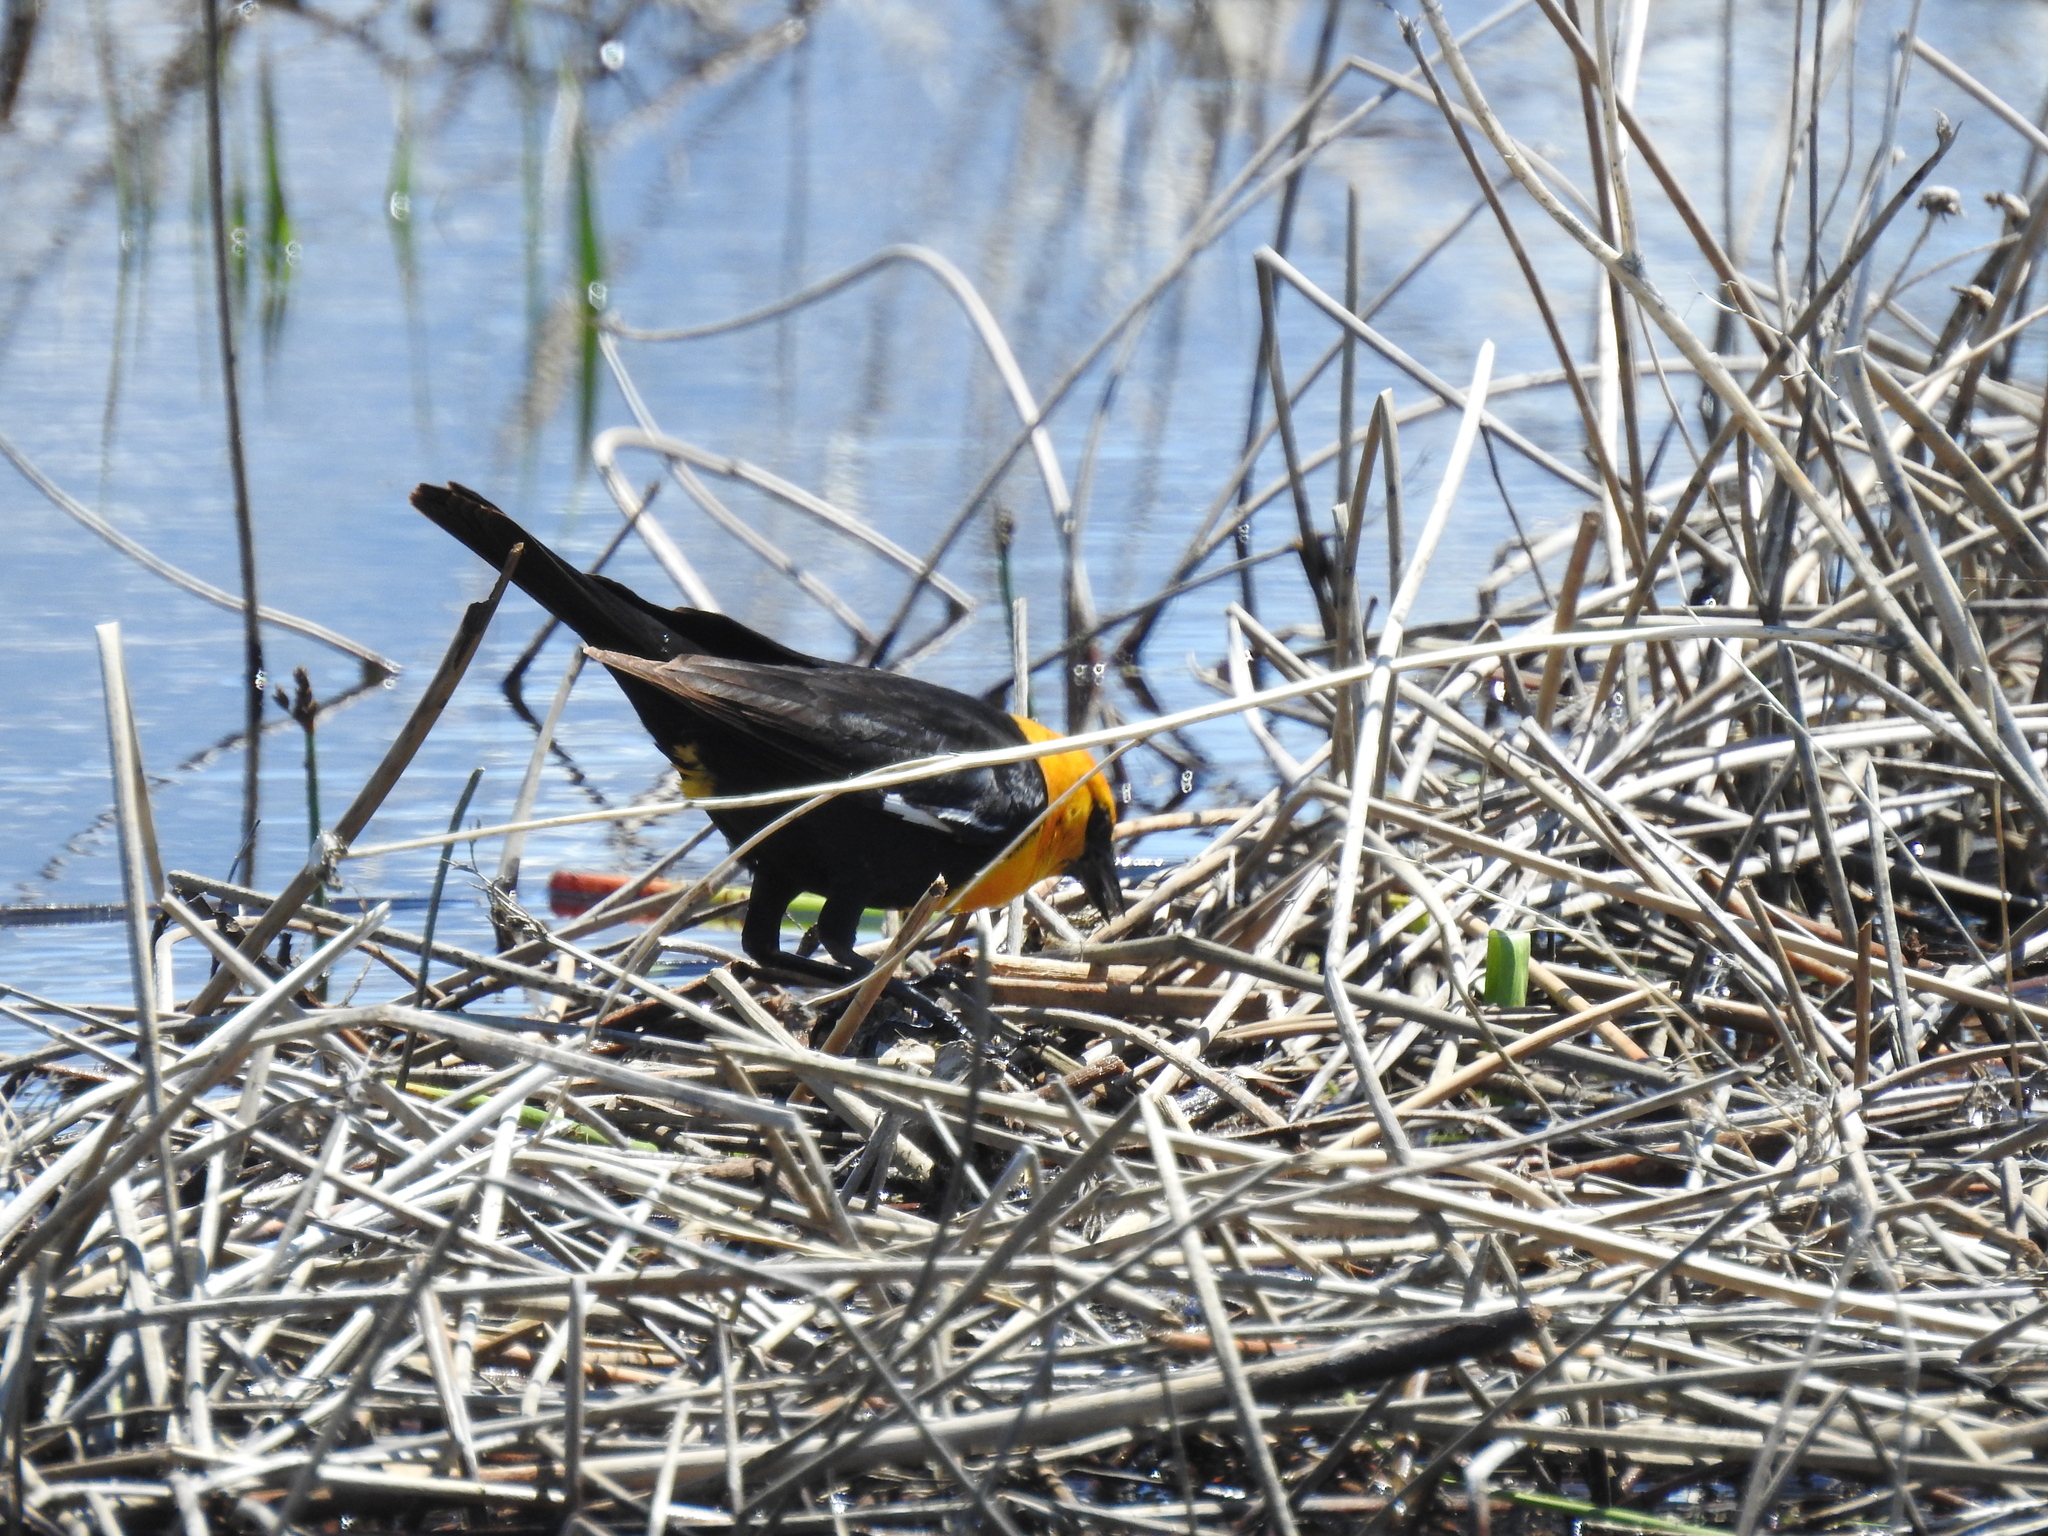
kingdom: Animalia
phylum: Chordata
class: Aves
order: Passeriformes
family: Icteridae
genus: Xanthocephalus
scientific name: Xanthocephalus xanthocephalus
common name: Yellow-headed blackbird
